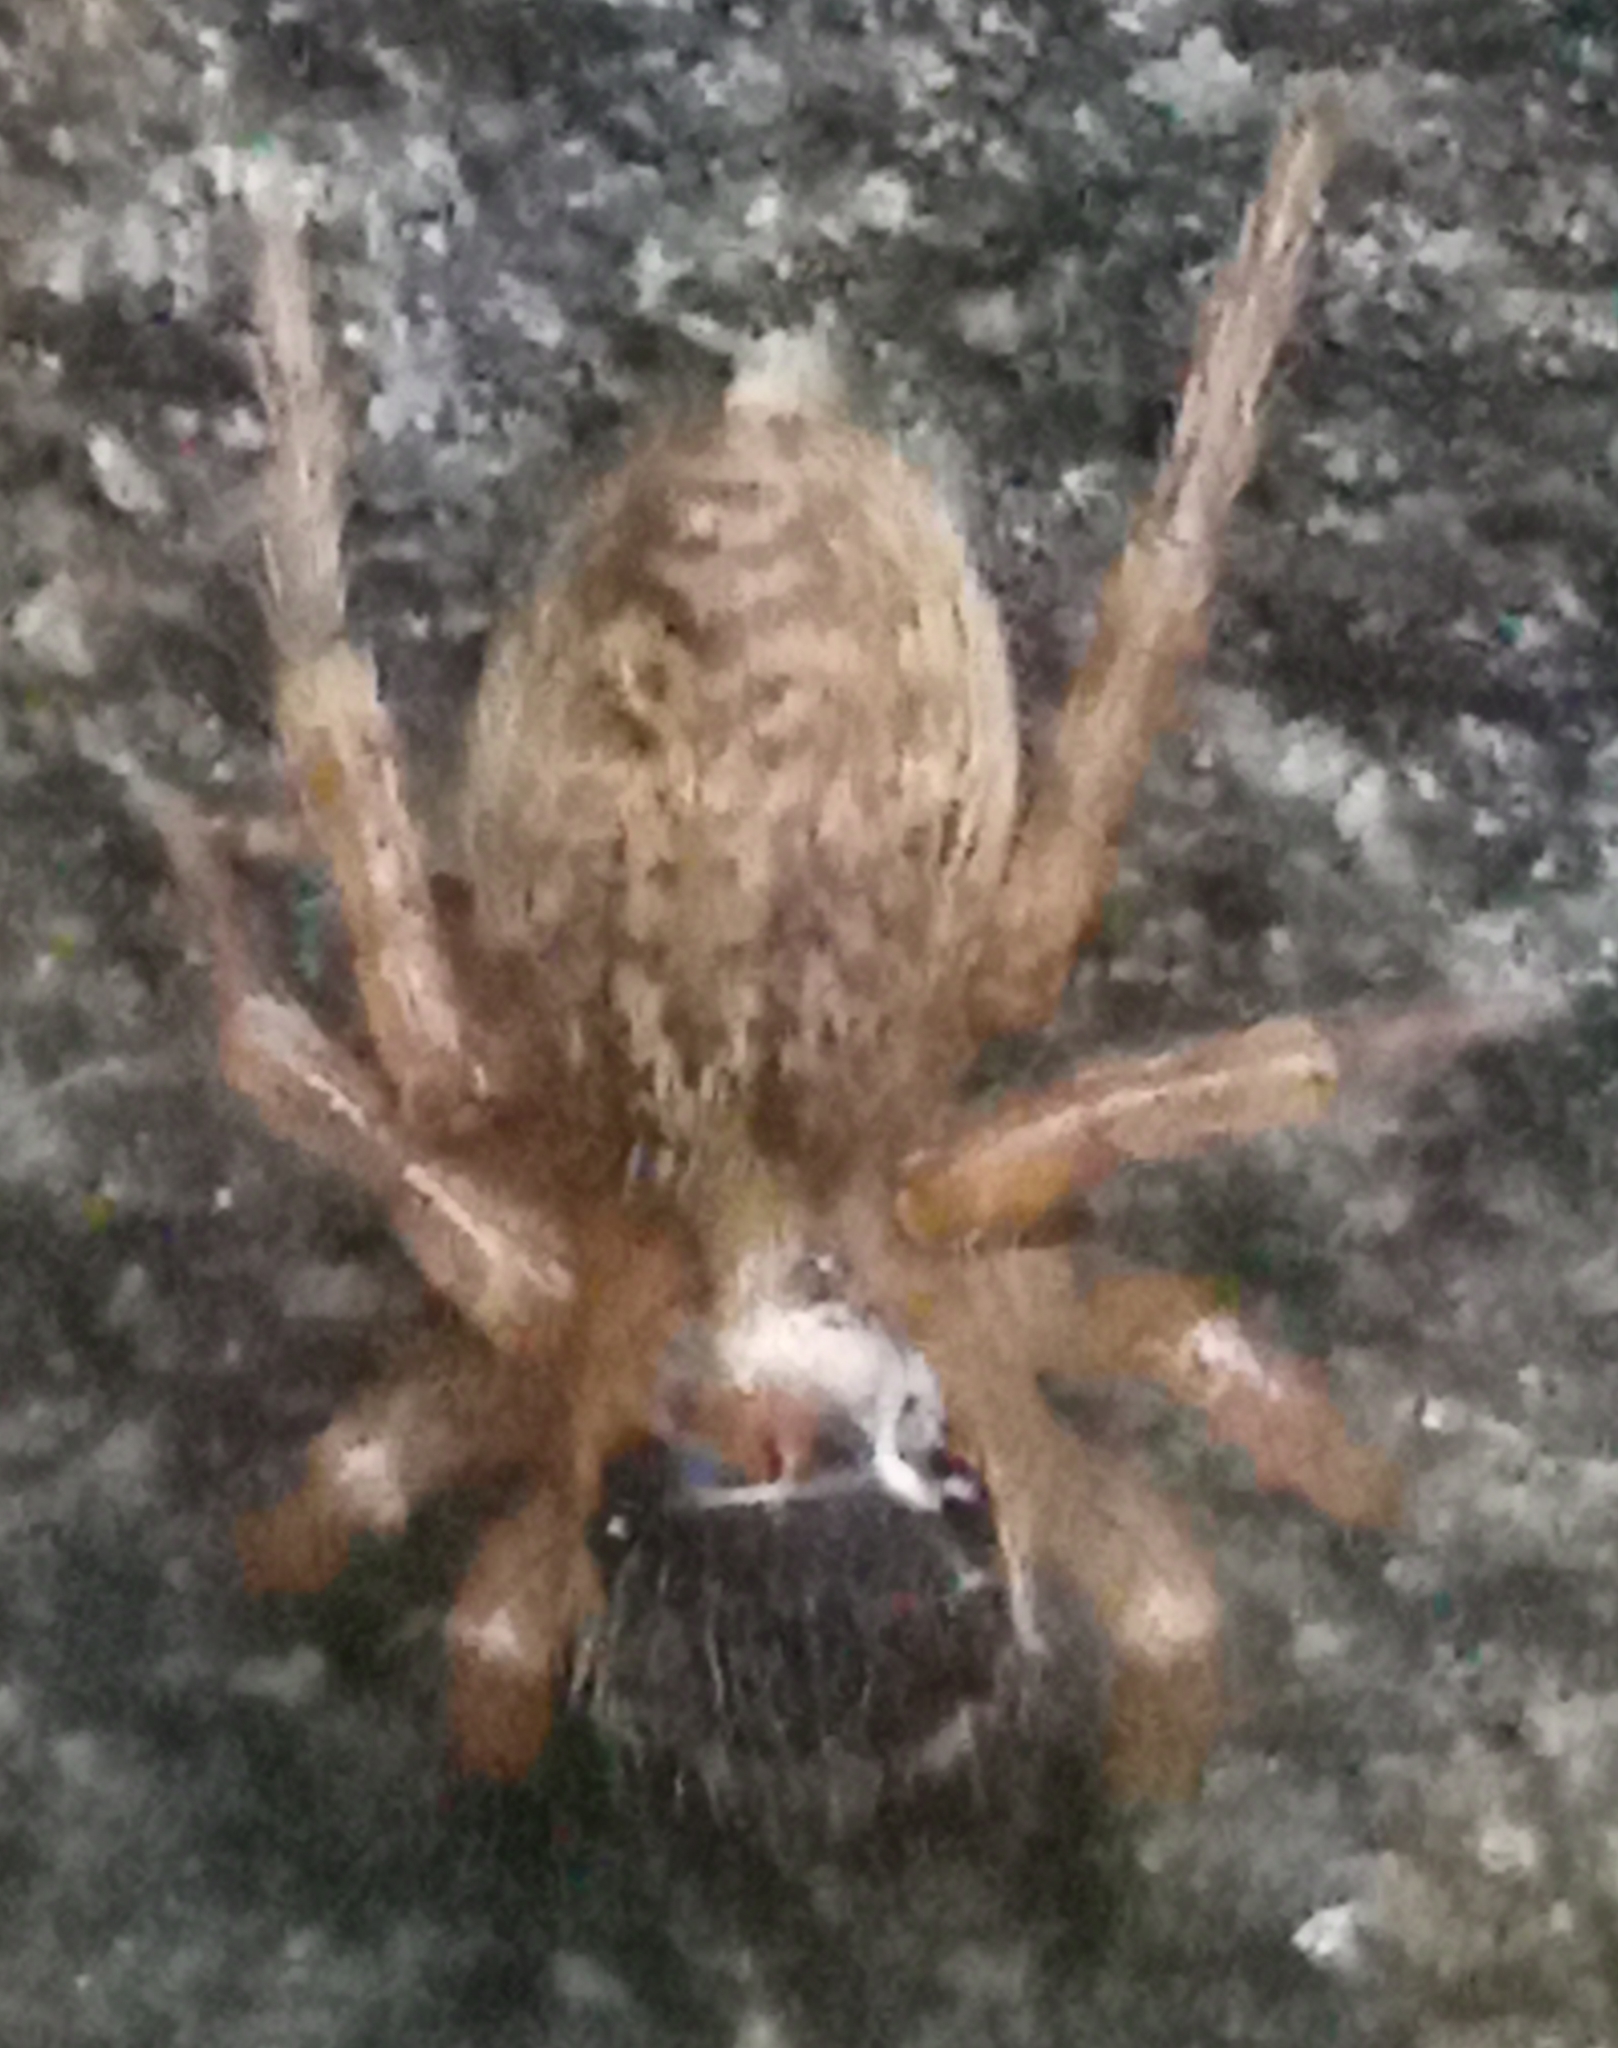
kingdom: Animalia
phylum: Arthropoda
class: Arachnida
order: Araneae
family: Salticidae
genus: Saitis
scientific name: Saitis barbipes
